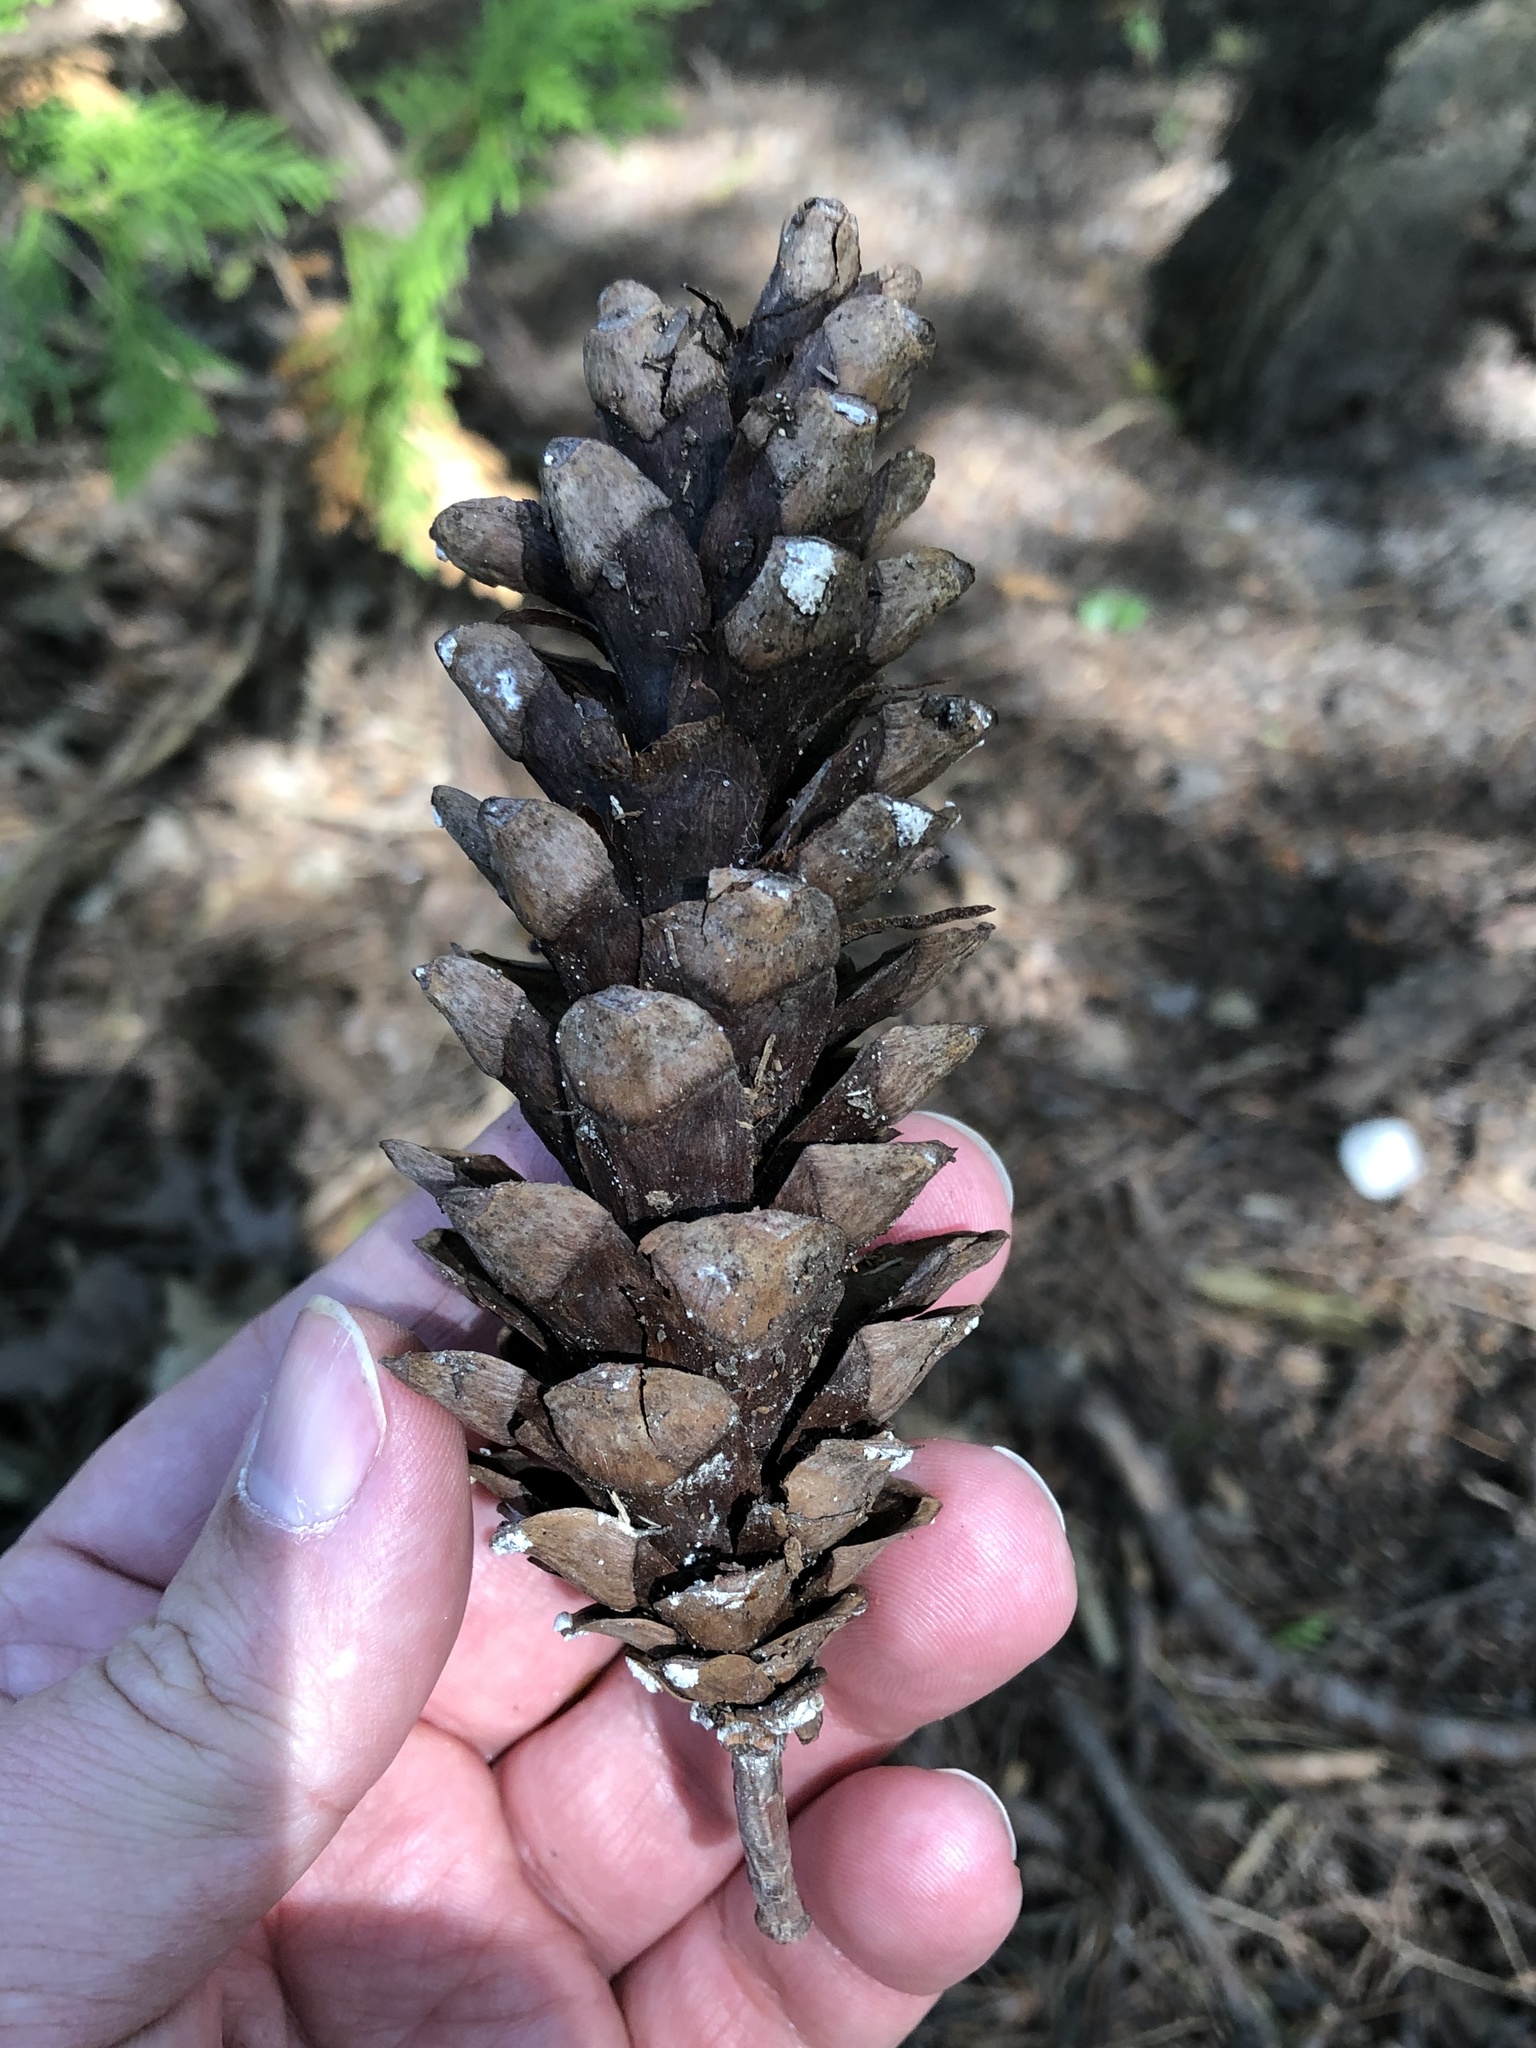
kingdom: Plantae
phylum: Tracheophyta
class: Pinopsida
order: Pinales
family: Pinaceae
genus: Pinus
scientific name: Pinus strobus
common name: Weymouth pine
